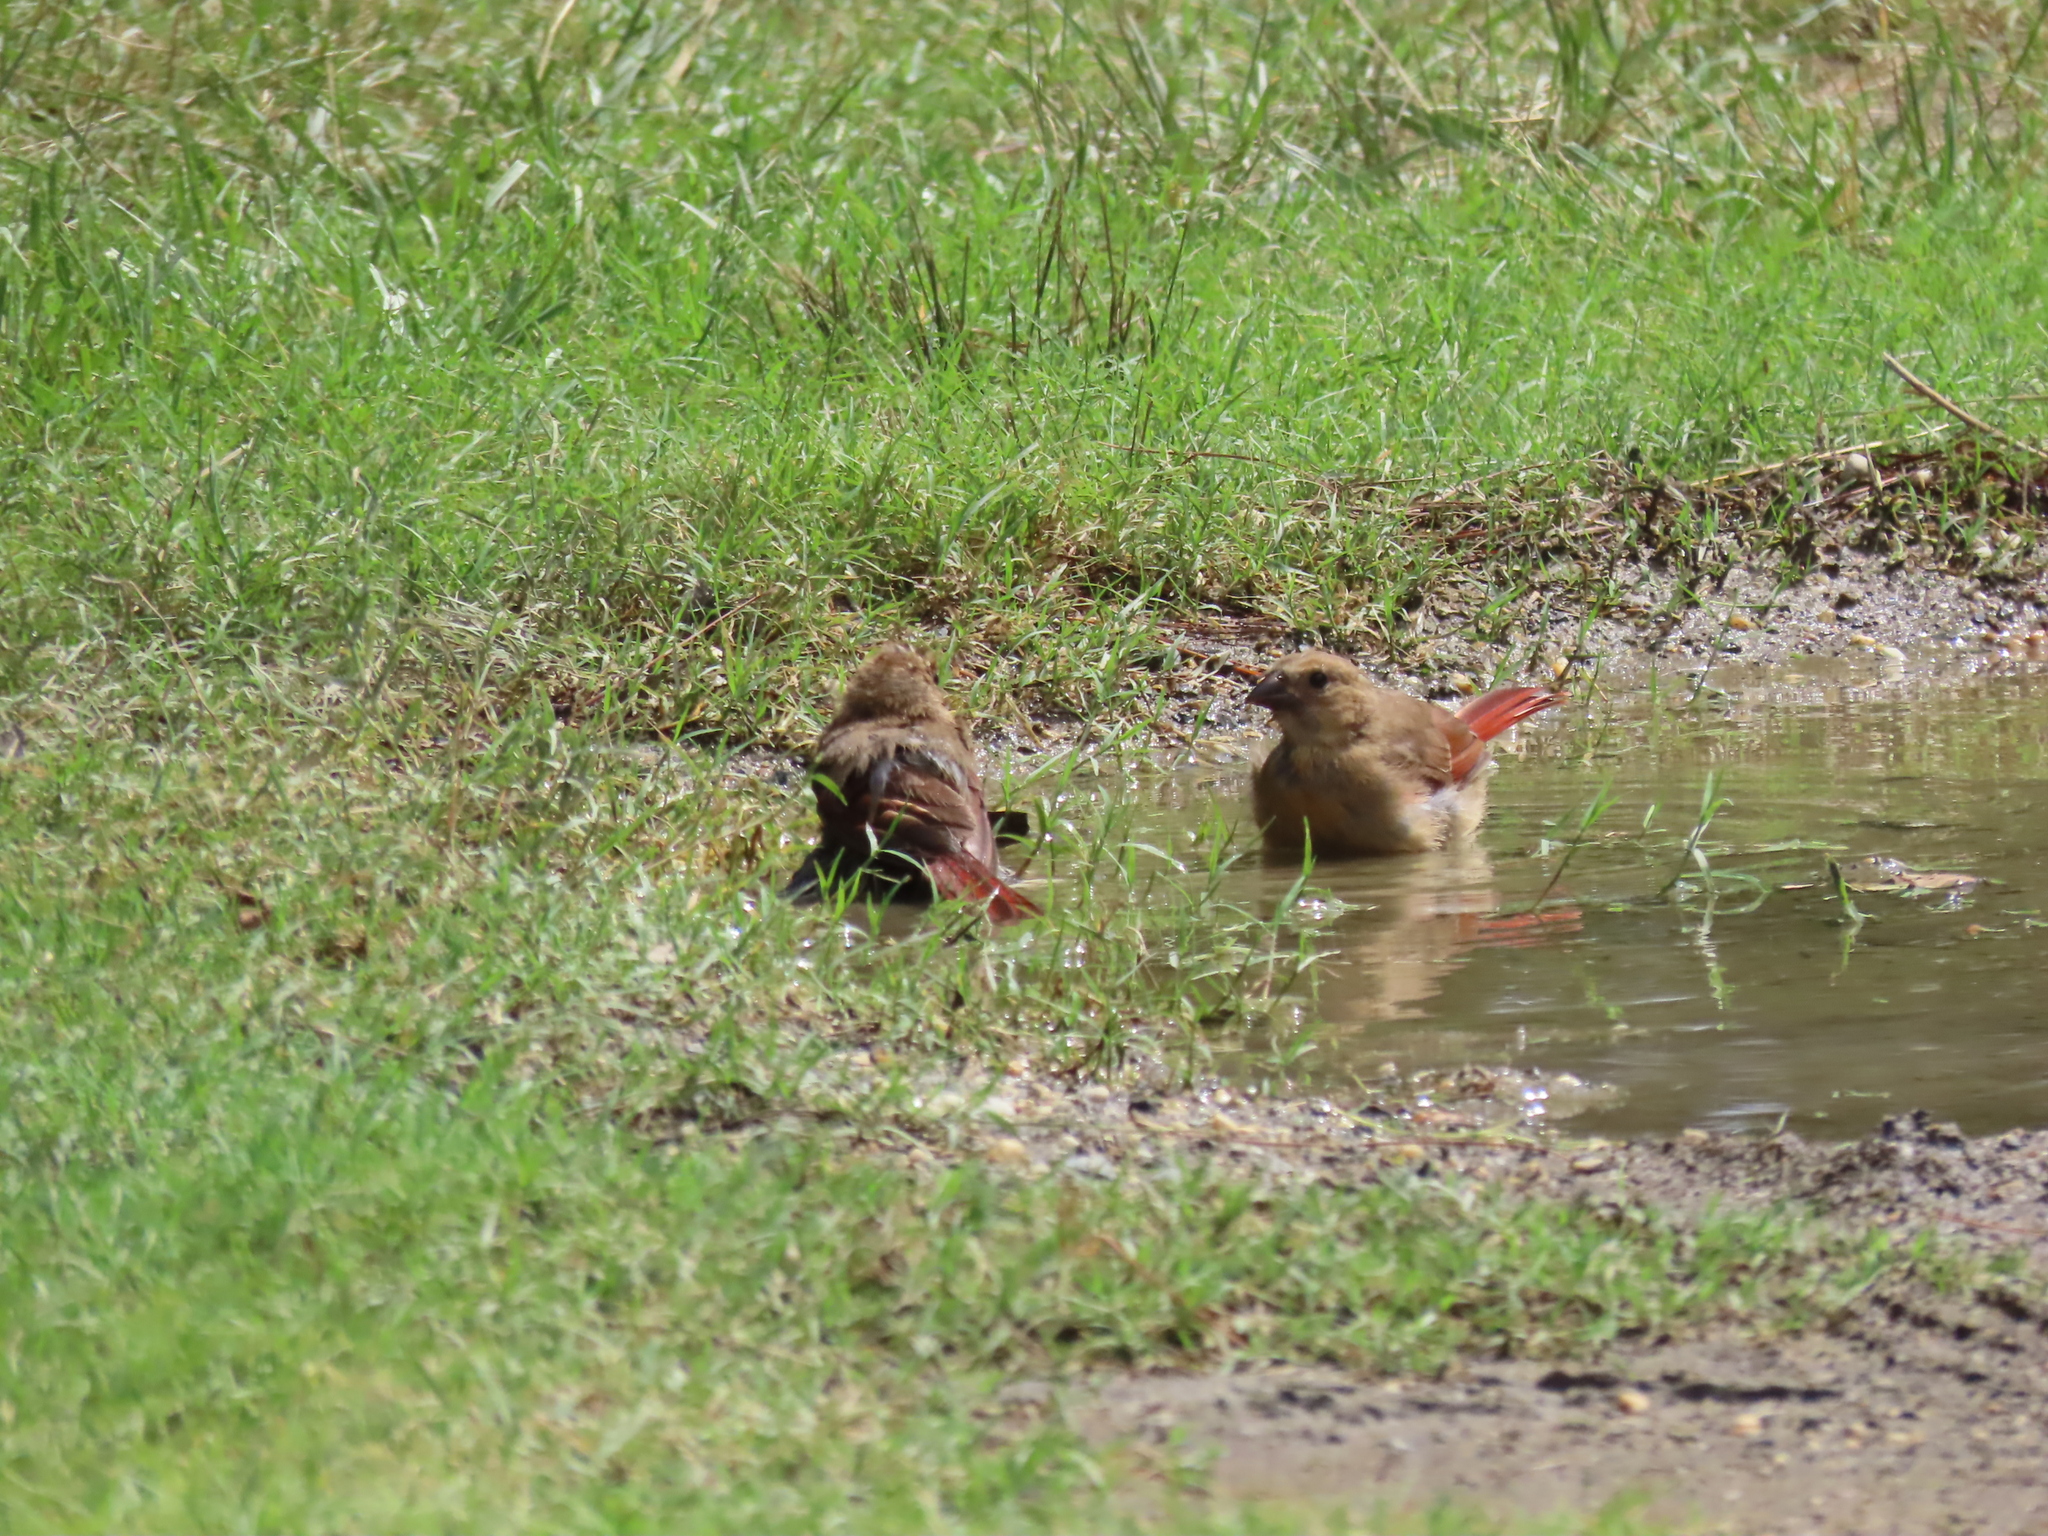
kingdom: Animalia
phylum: Chordata
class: Aves
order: Passeriformes
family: Cardinalidae
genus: Cardinalis
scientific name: Cardinalis cardinalis
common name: Northern cardinal
